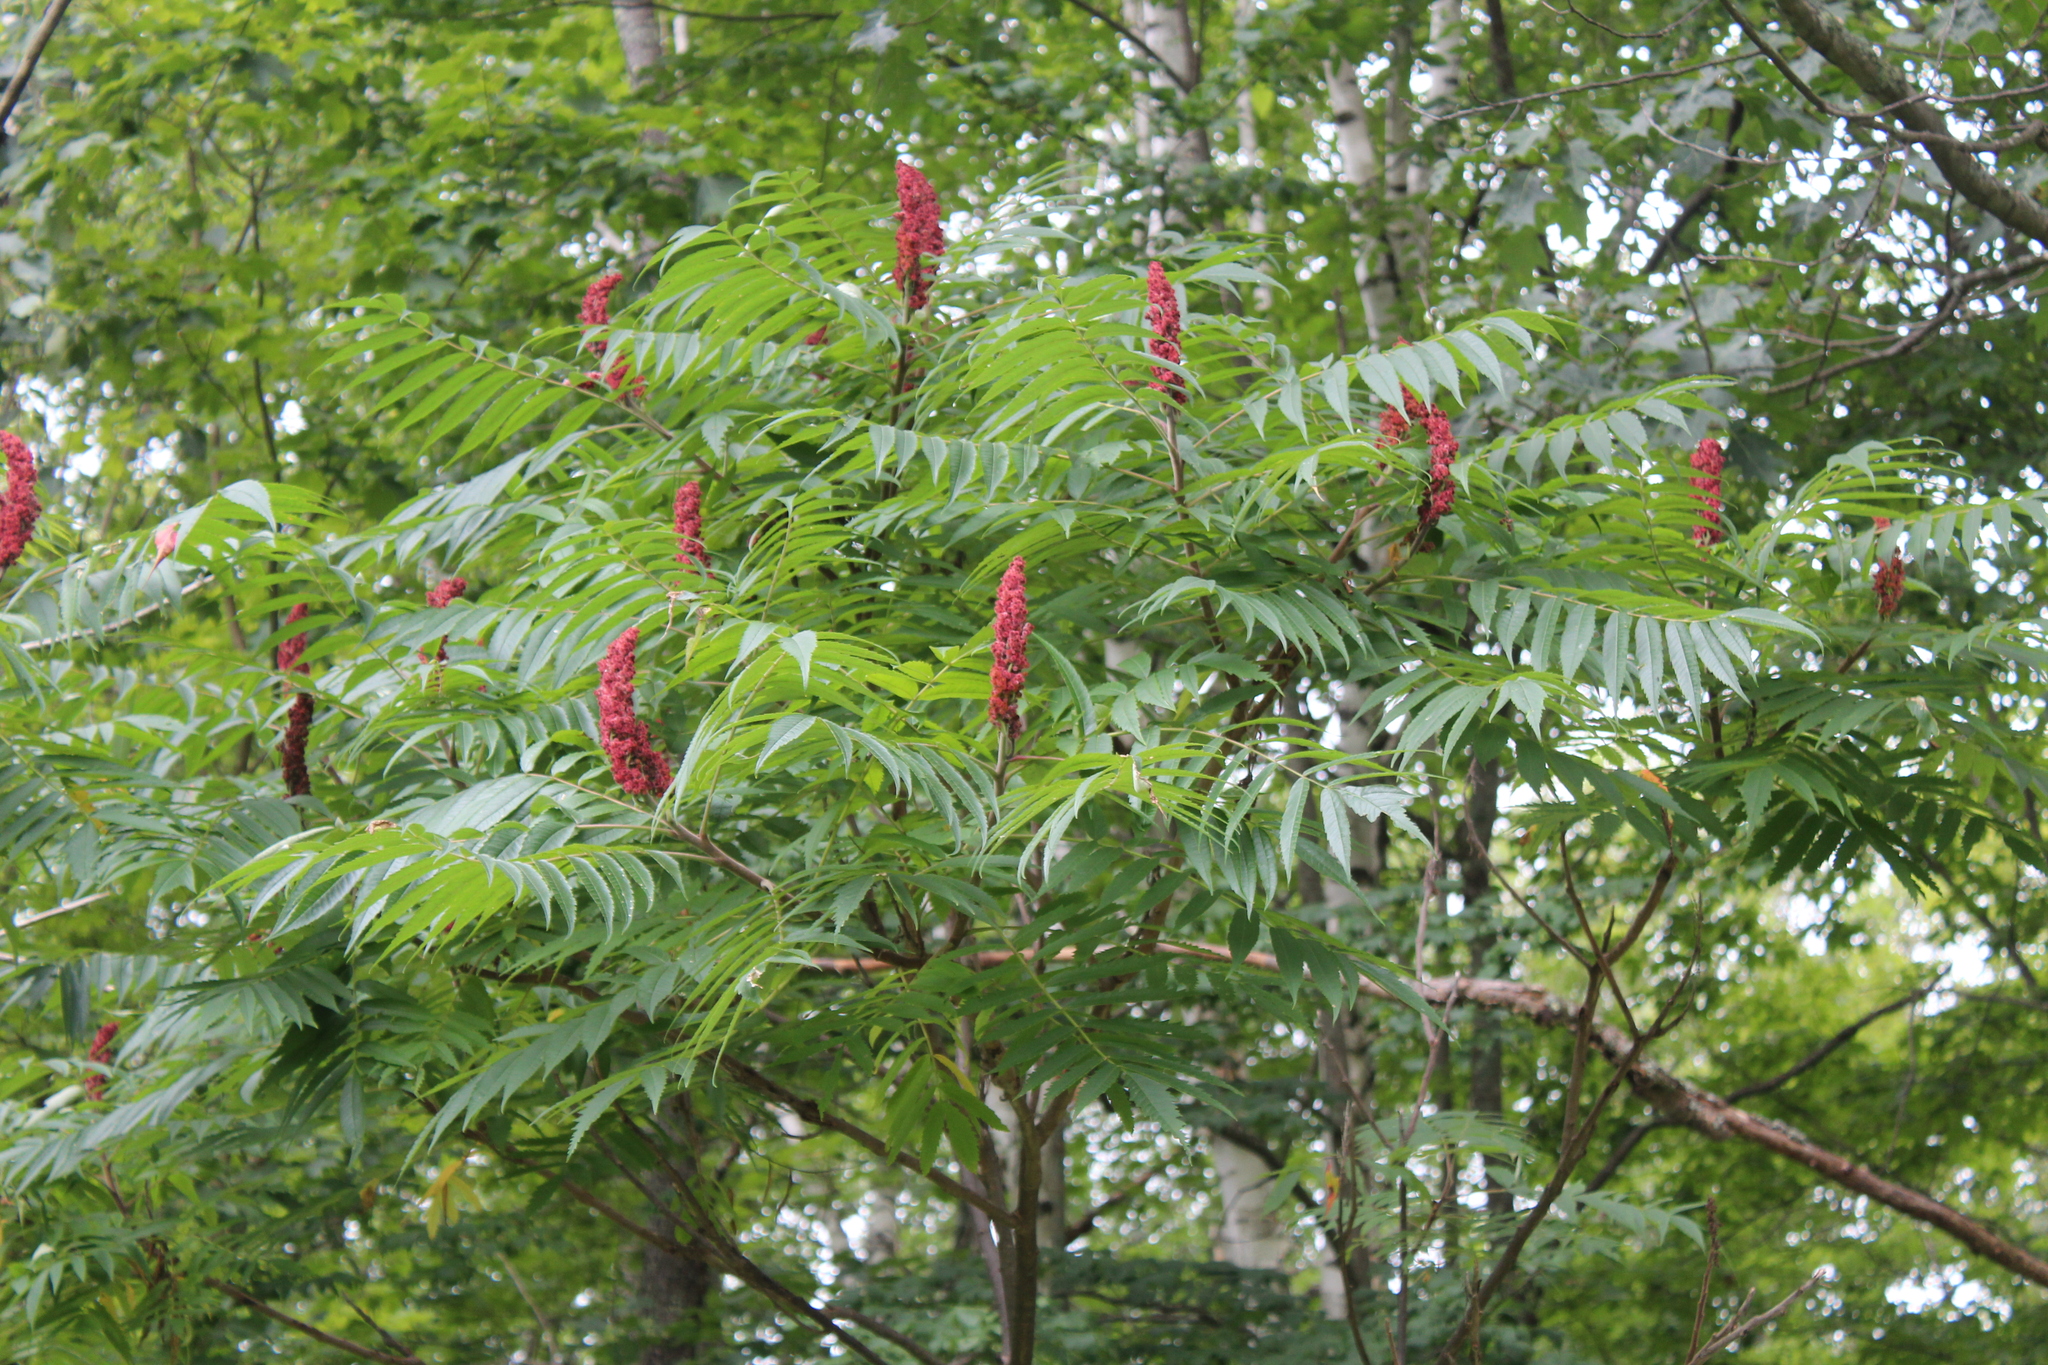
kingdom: Plantae
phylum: Tracheophyta
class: Magnoliopsida
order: Sapindales
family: Anacardiaceae
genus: Rhus
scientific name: Rhus typhina
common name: Staghorn sumac
